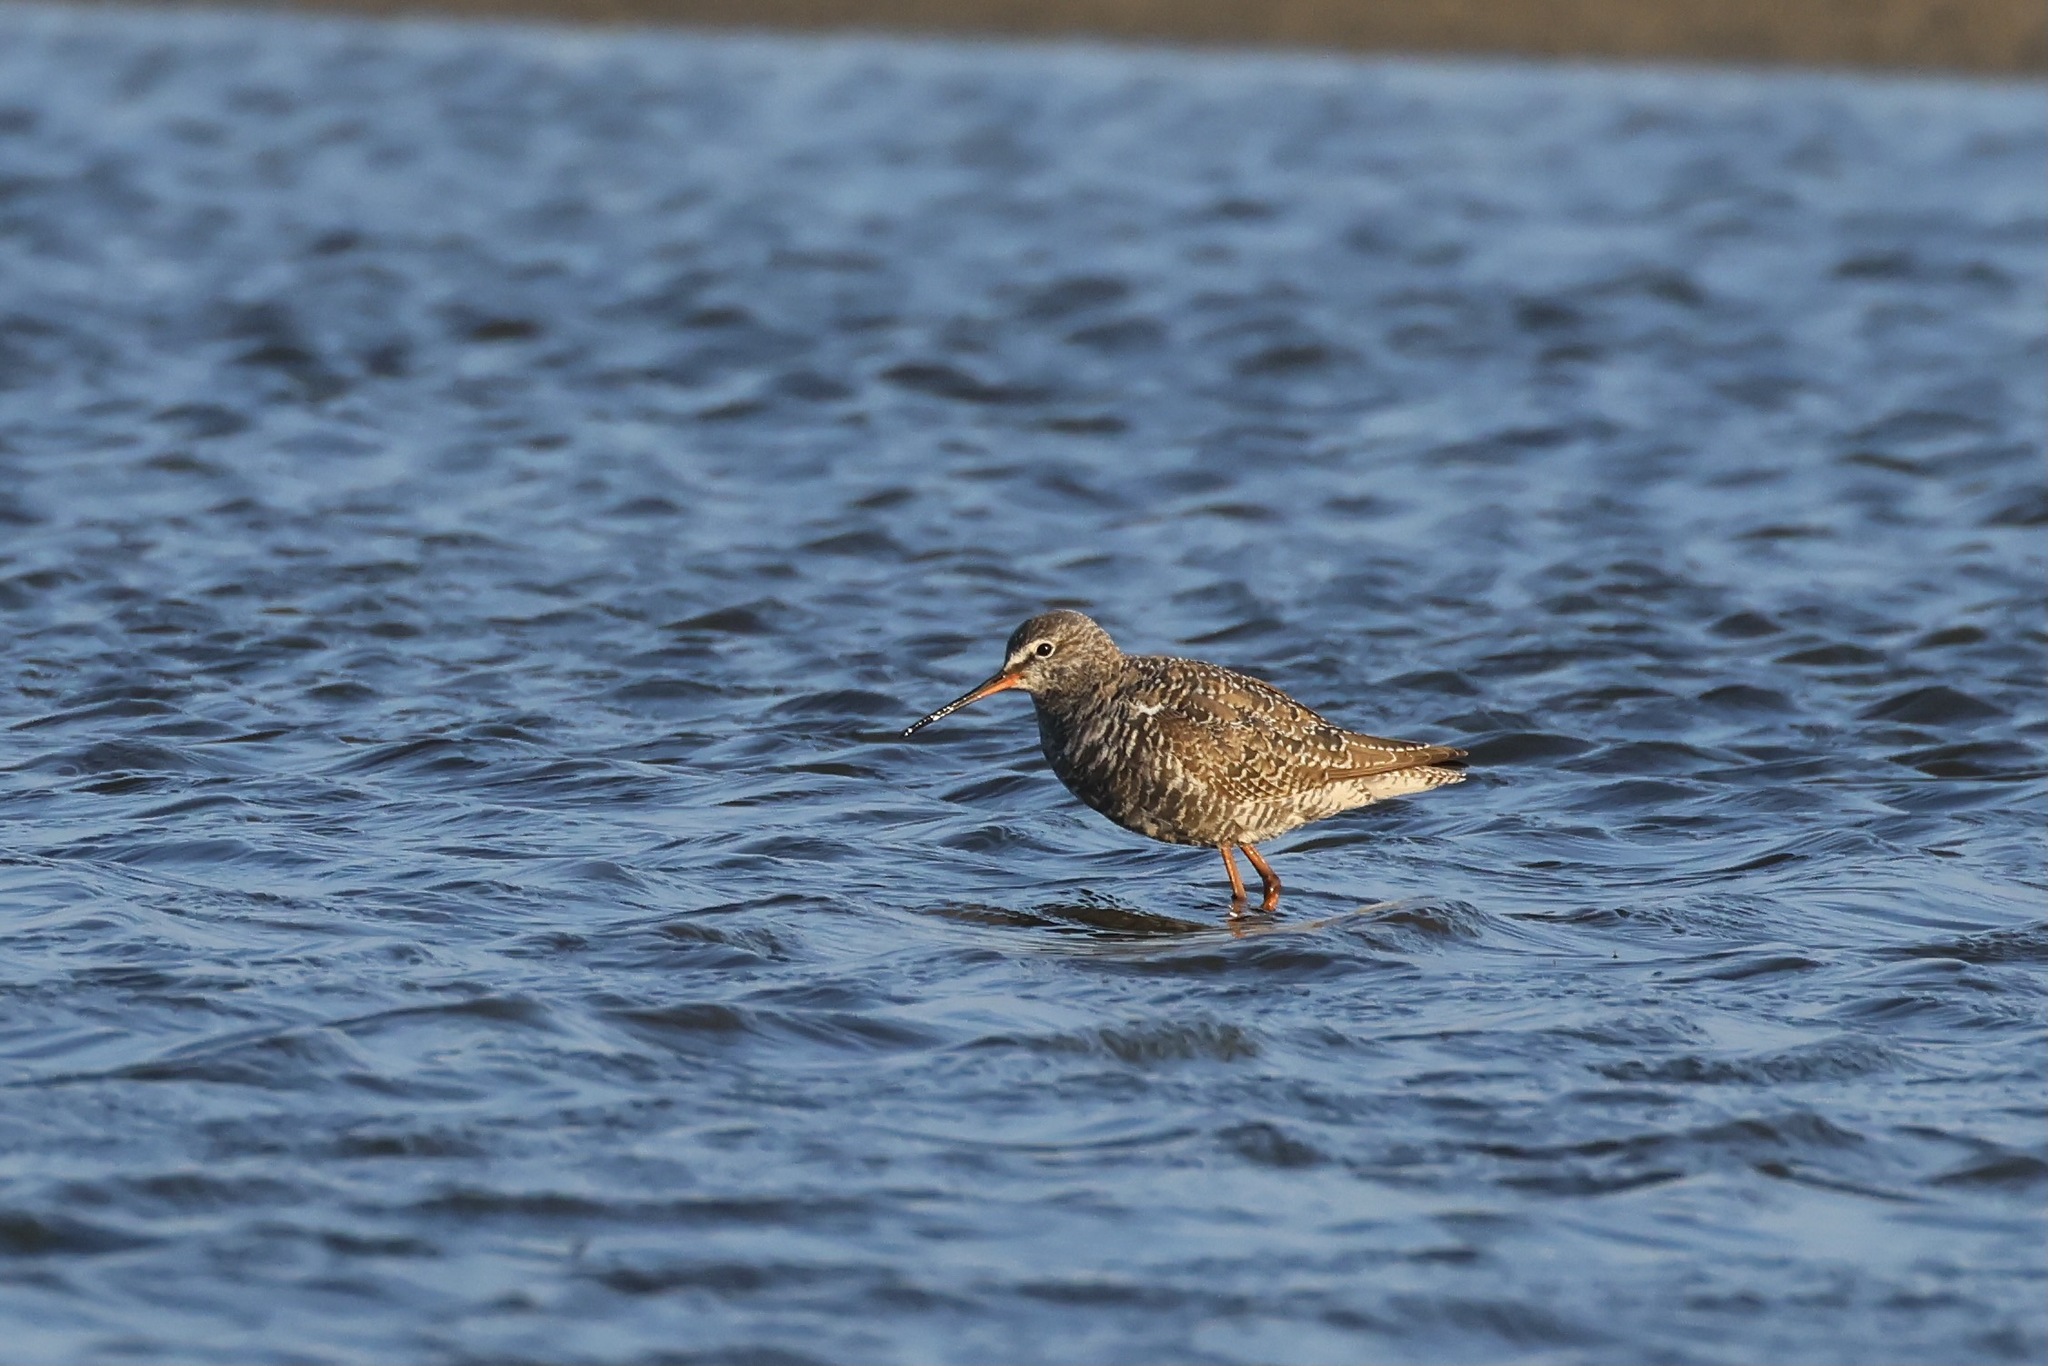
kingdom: Animalia
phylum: Chordata
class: Aves
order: Charadriiformes
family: Scolopacidae
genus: Tringa
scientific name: Tringa erythropus
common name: Spotted redshank
